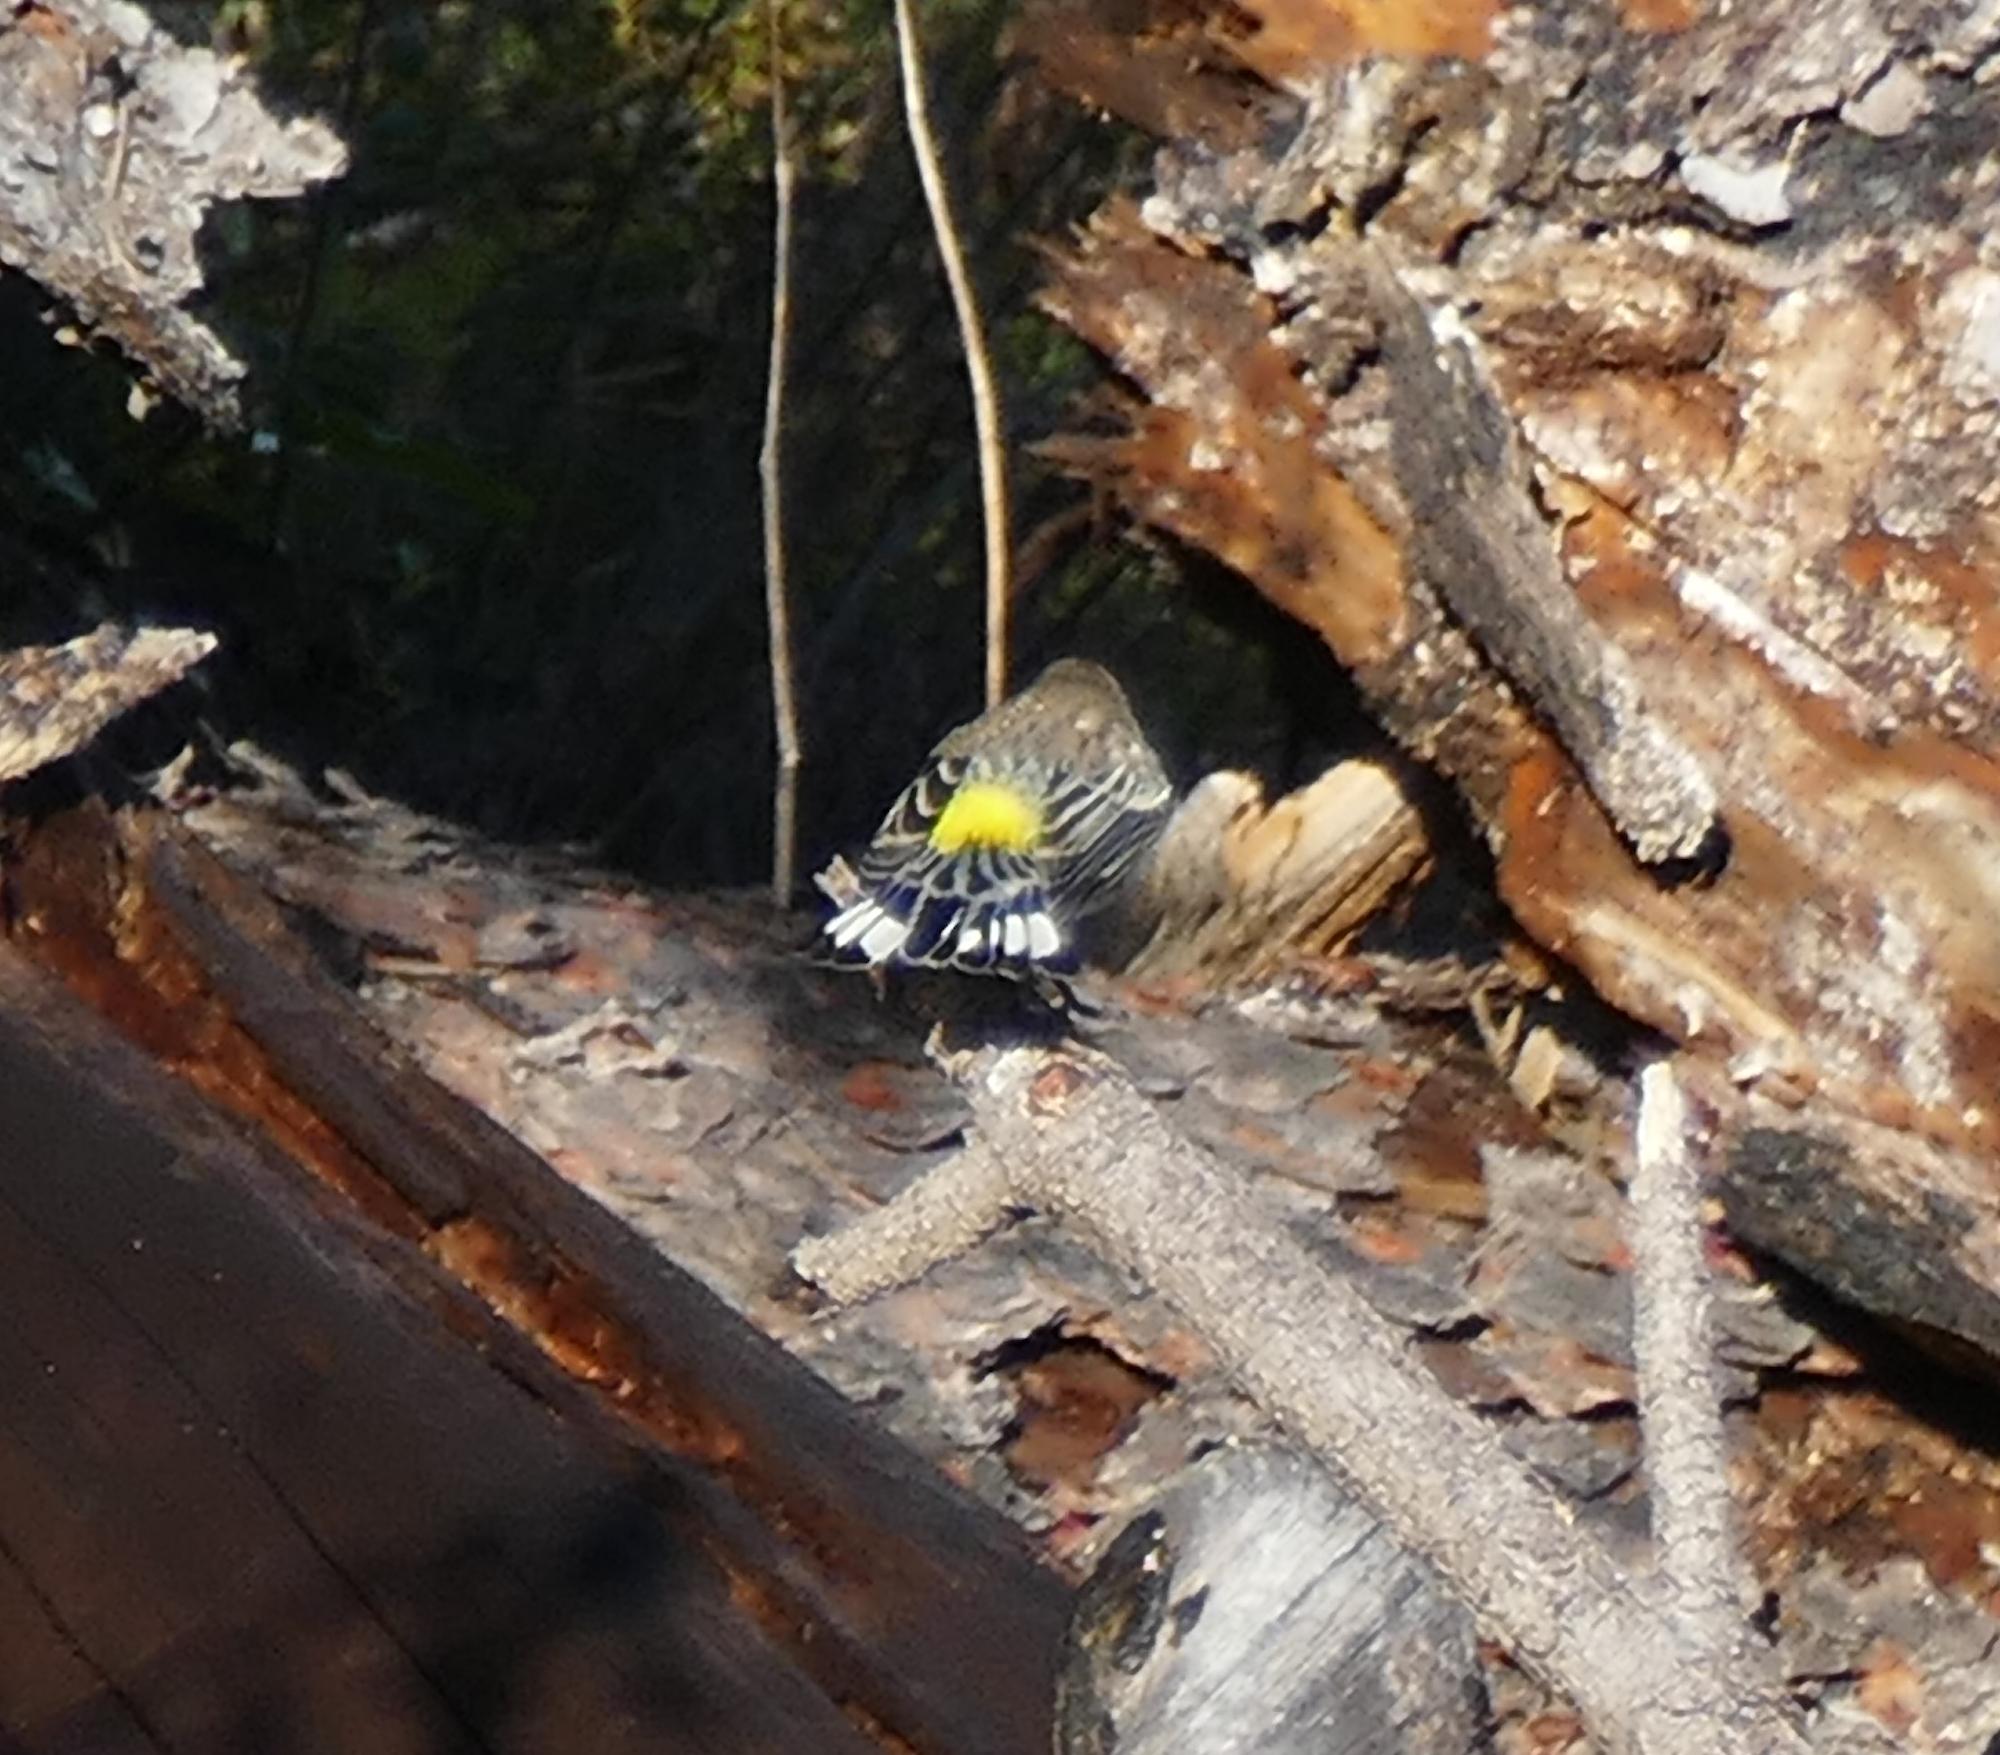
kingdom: Animalia
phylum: Chordata
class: Aves
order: Passeriformes
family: Parulidae
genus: Setophaga
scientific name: Setophaga auduboni
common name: Audubon's warbler
